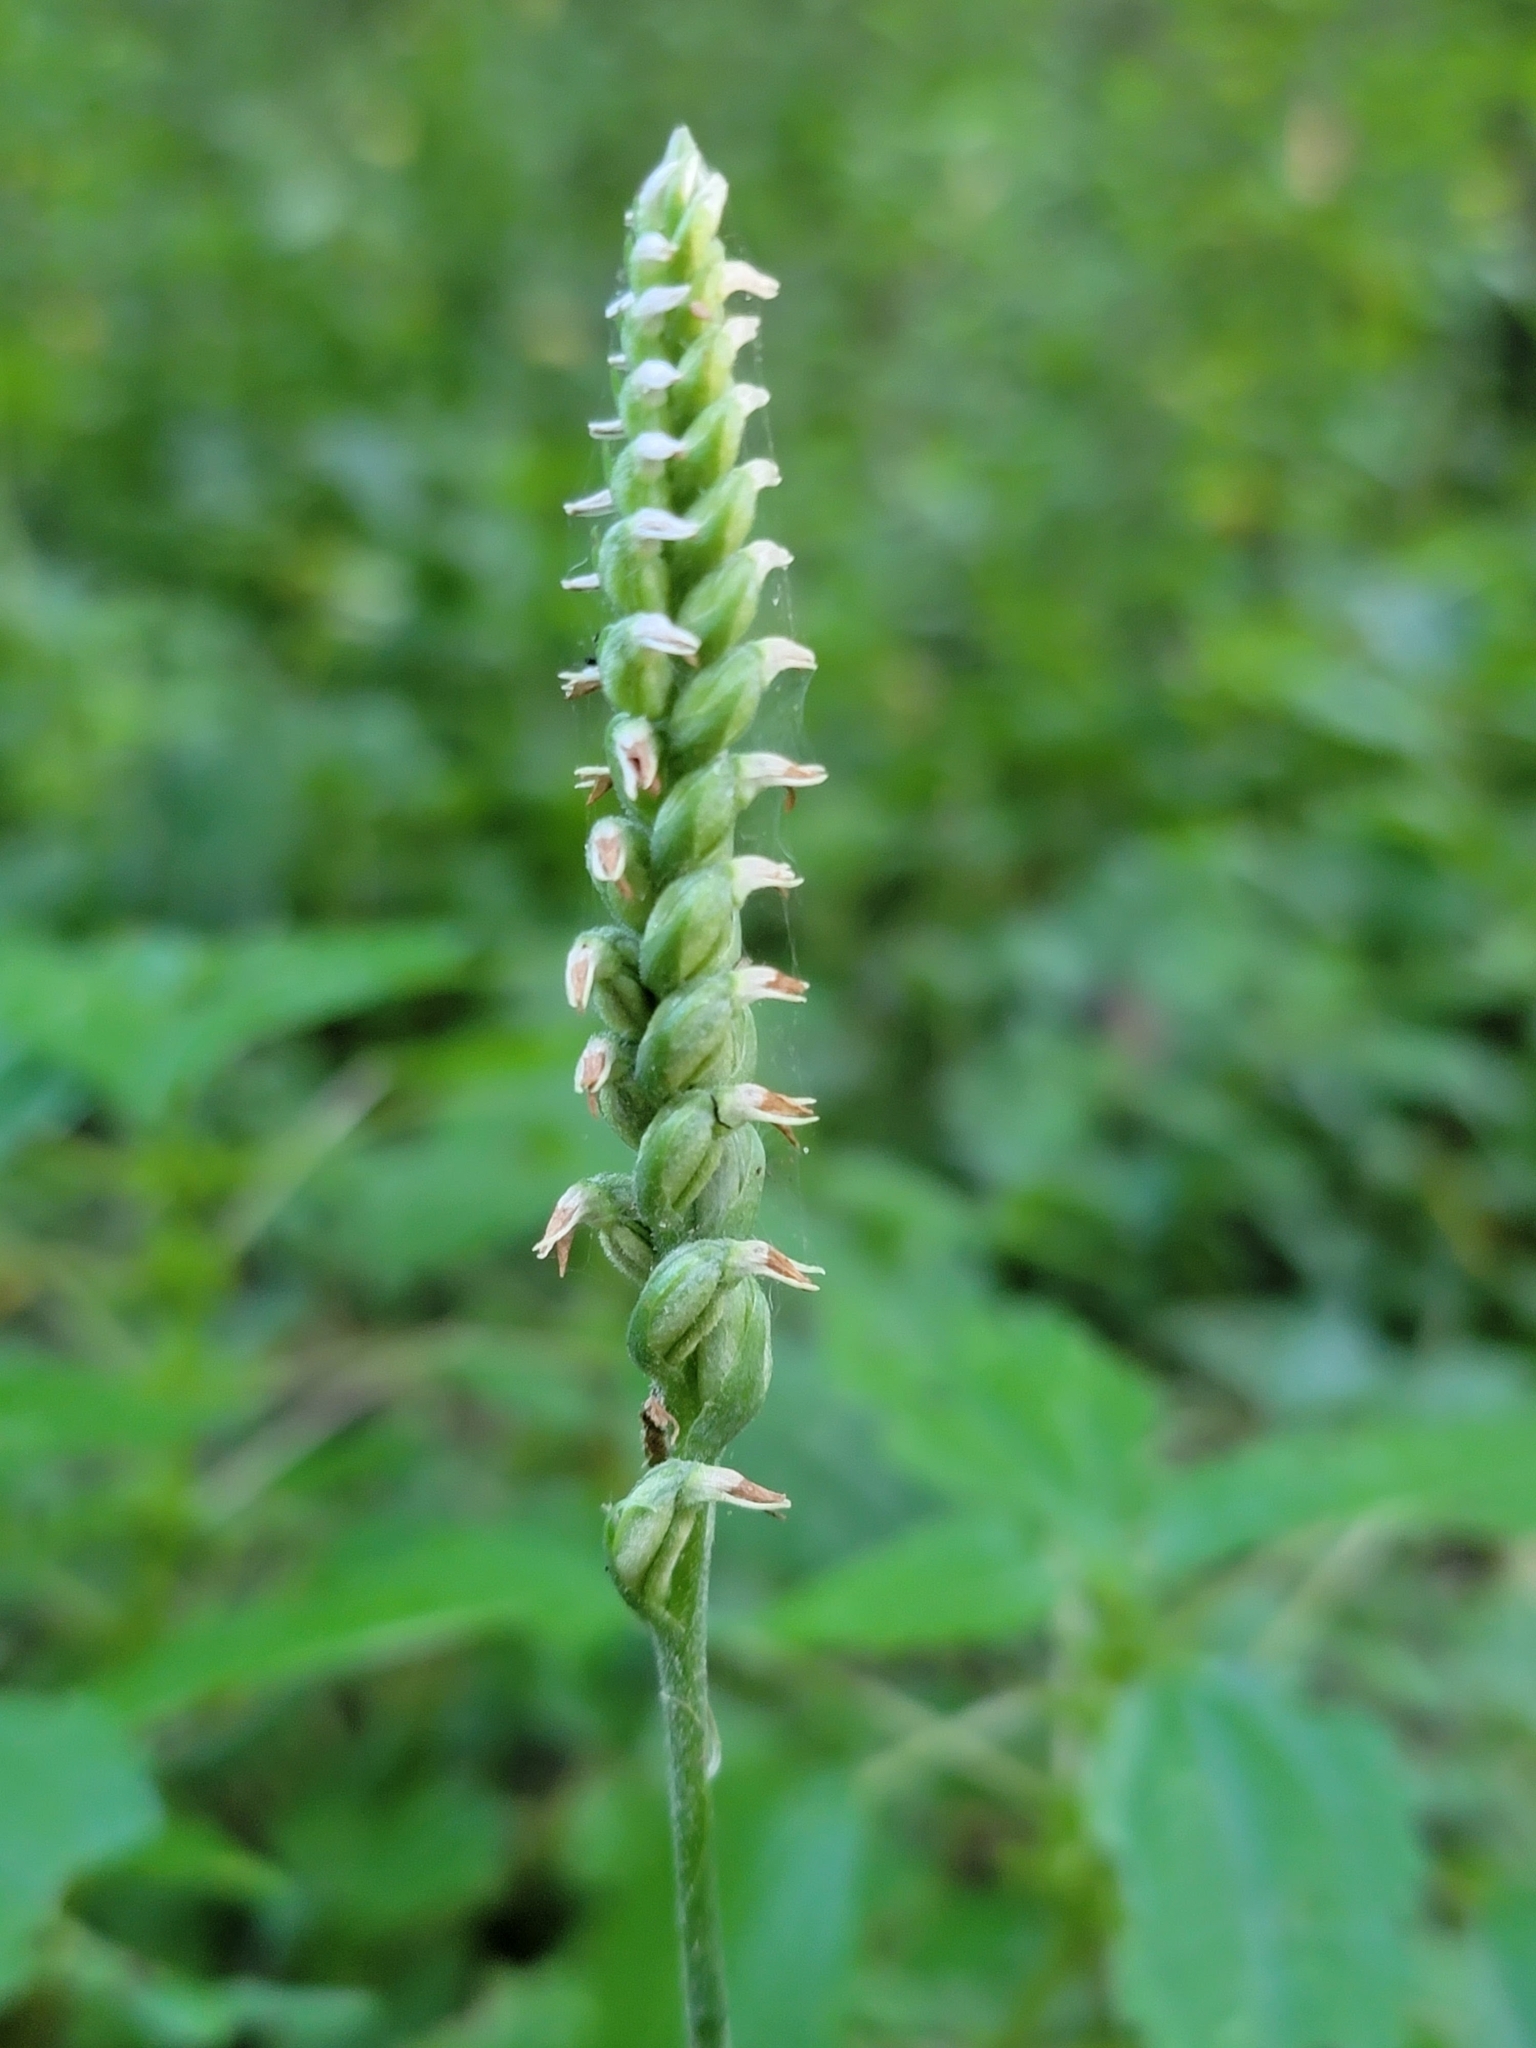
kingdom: Plantae
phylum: Tracheophyta
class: Liliopsida
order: Asparagales
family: Orchidaceae
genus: Spiranthes
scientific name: Spiranthes ovalis
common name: October ladies'-tresses
